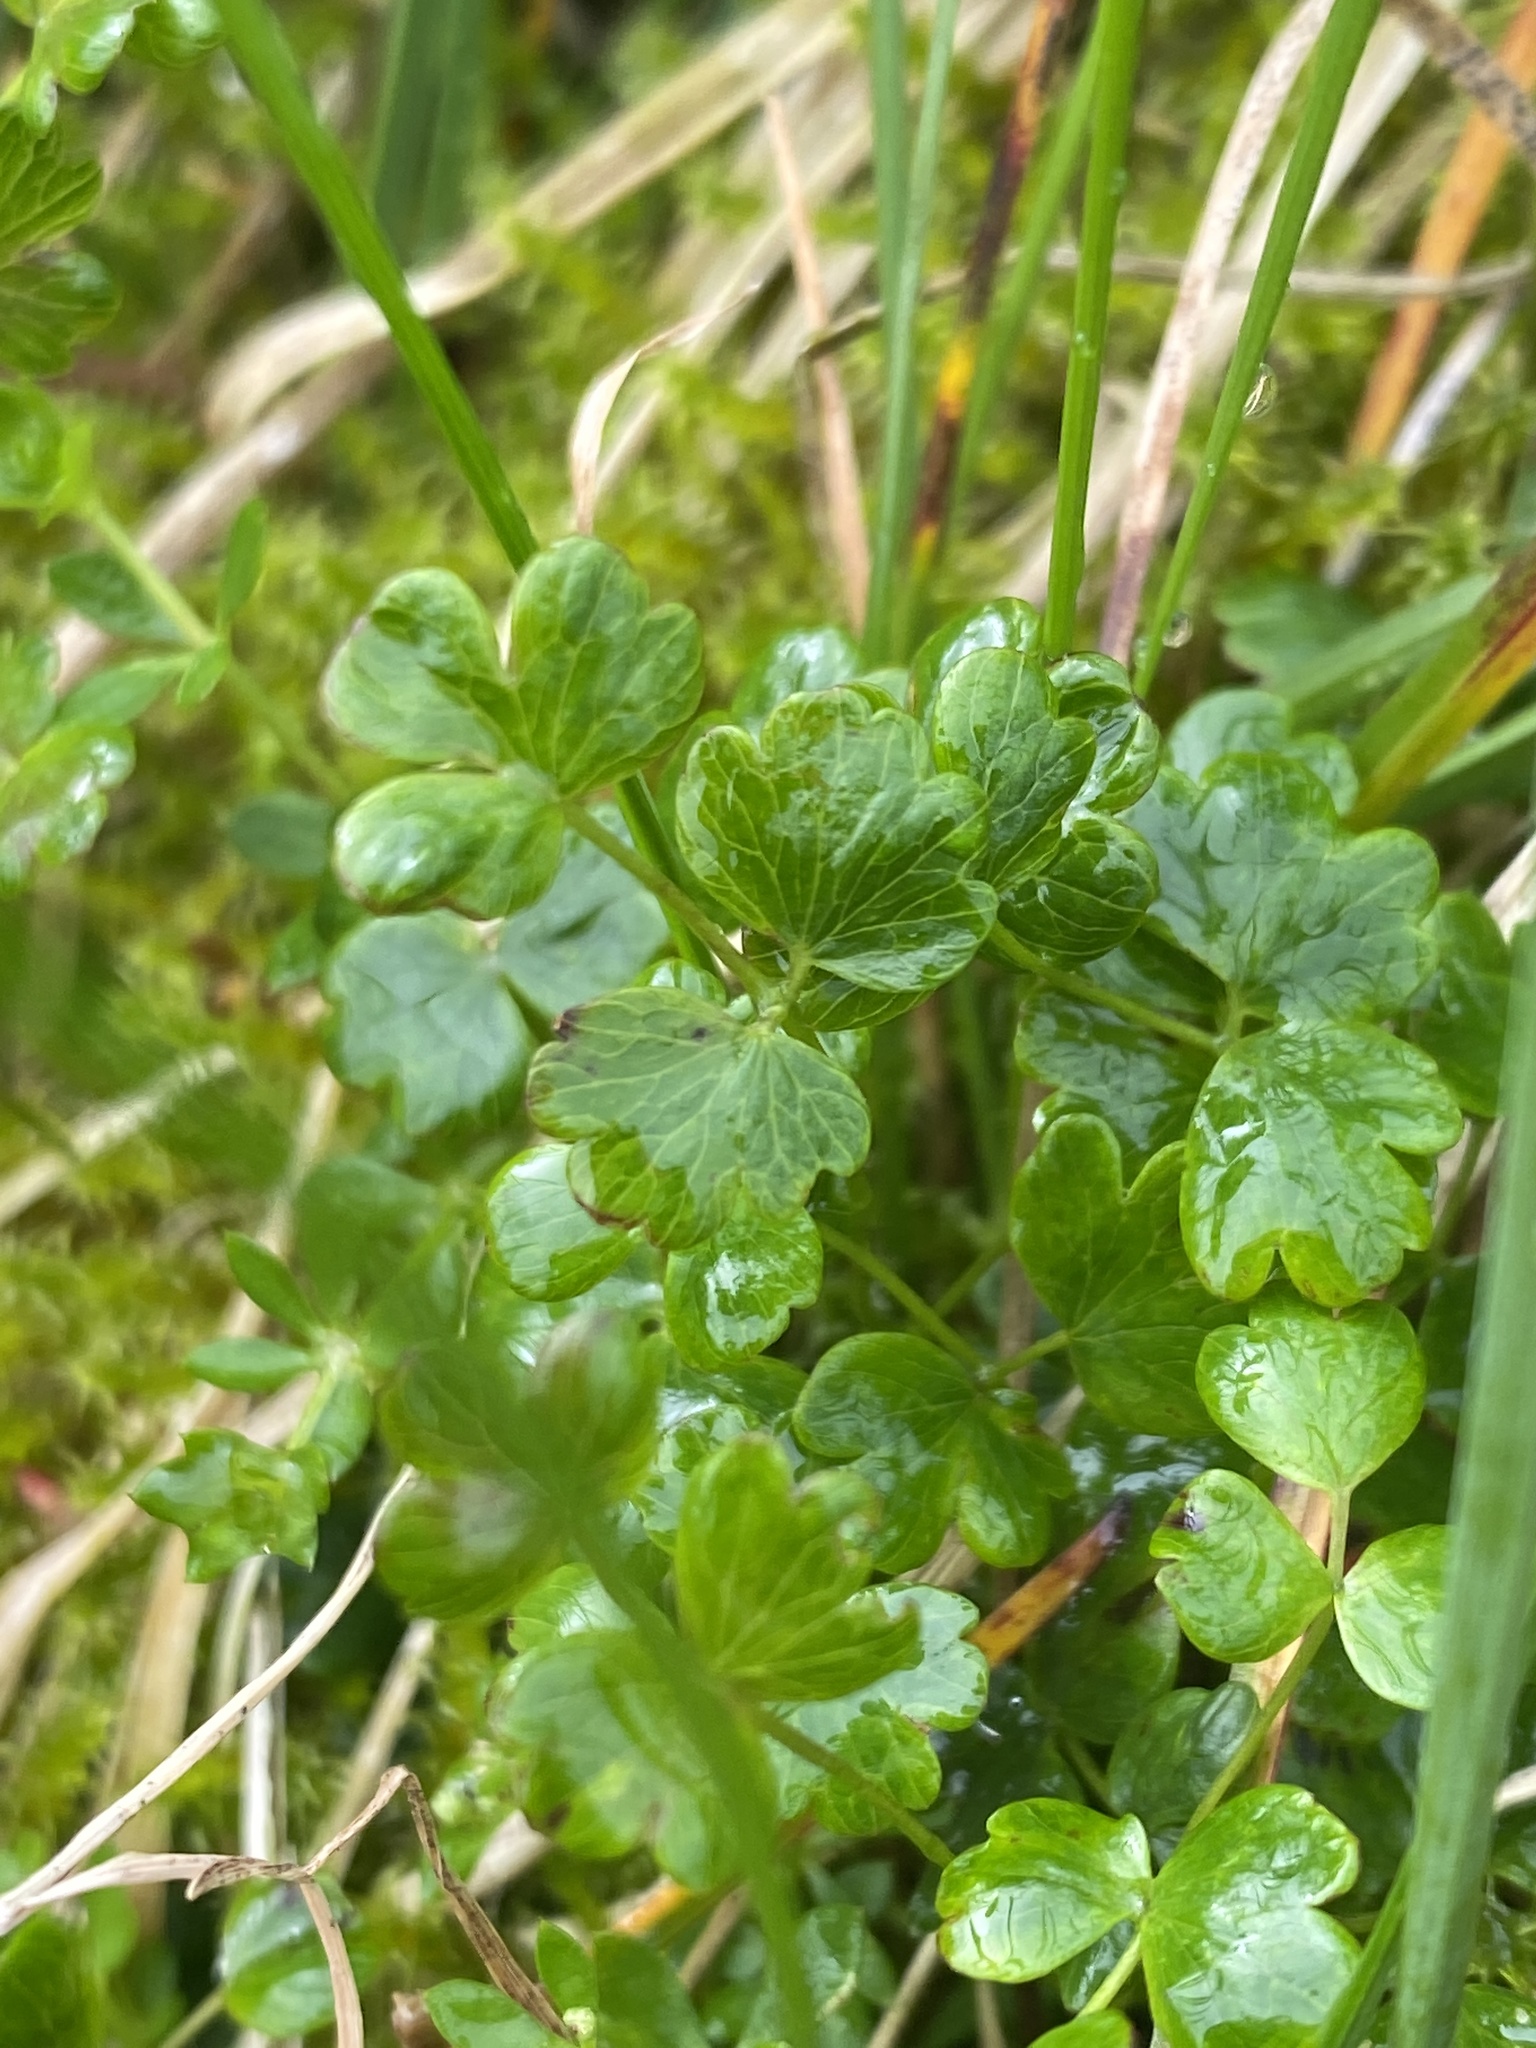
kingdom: Plantae
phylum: Tracheophyta
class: Magnoliopsida
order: Ranunculales
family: Ranunculaceae
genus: Thalictrum
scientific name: Thalictrum alpinum
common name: Alpine meadow-rue
